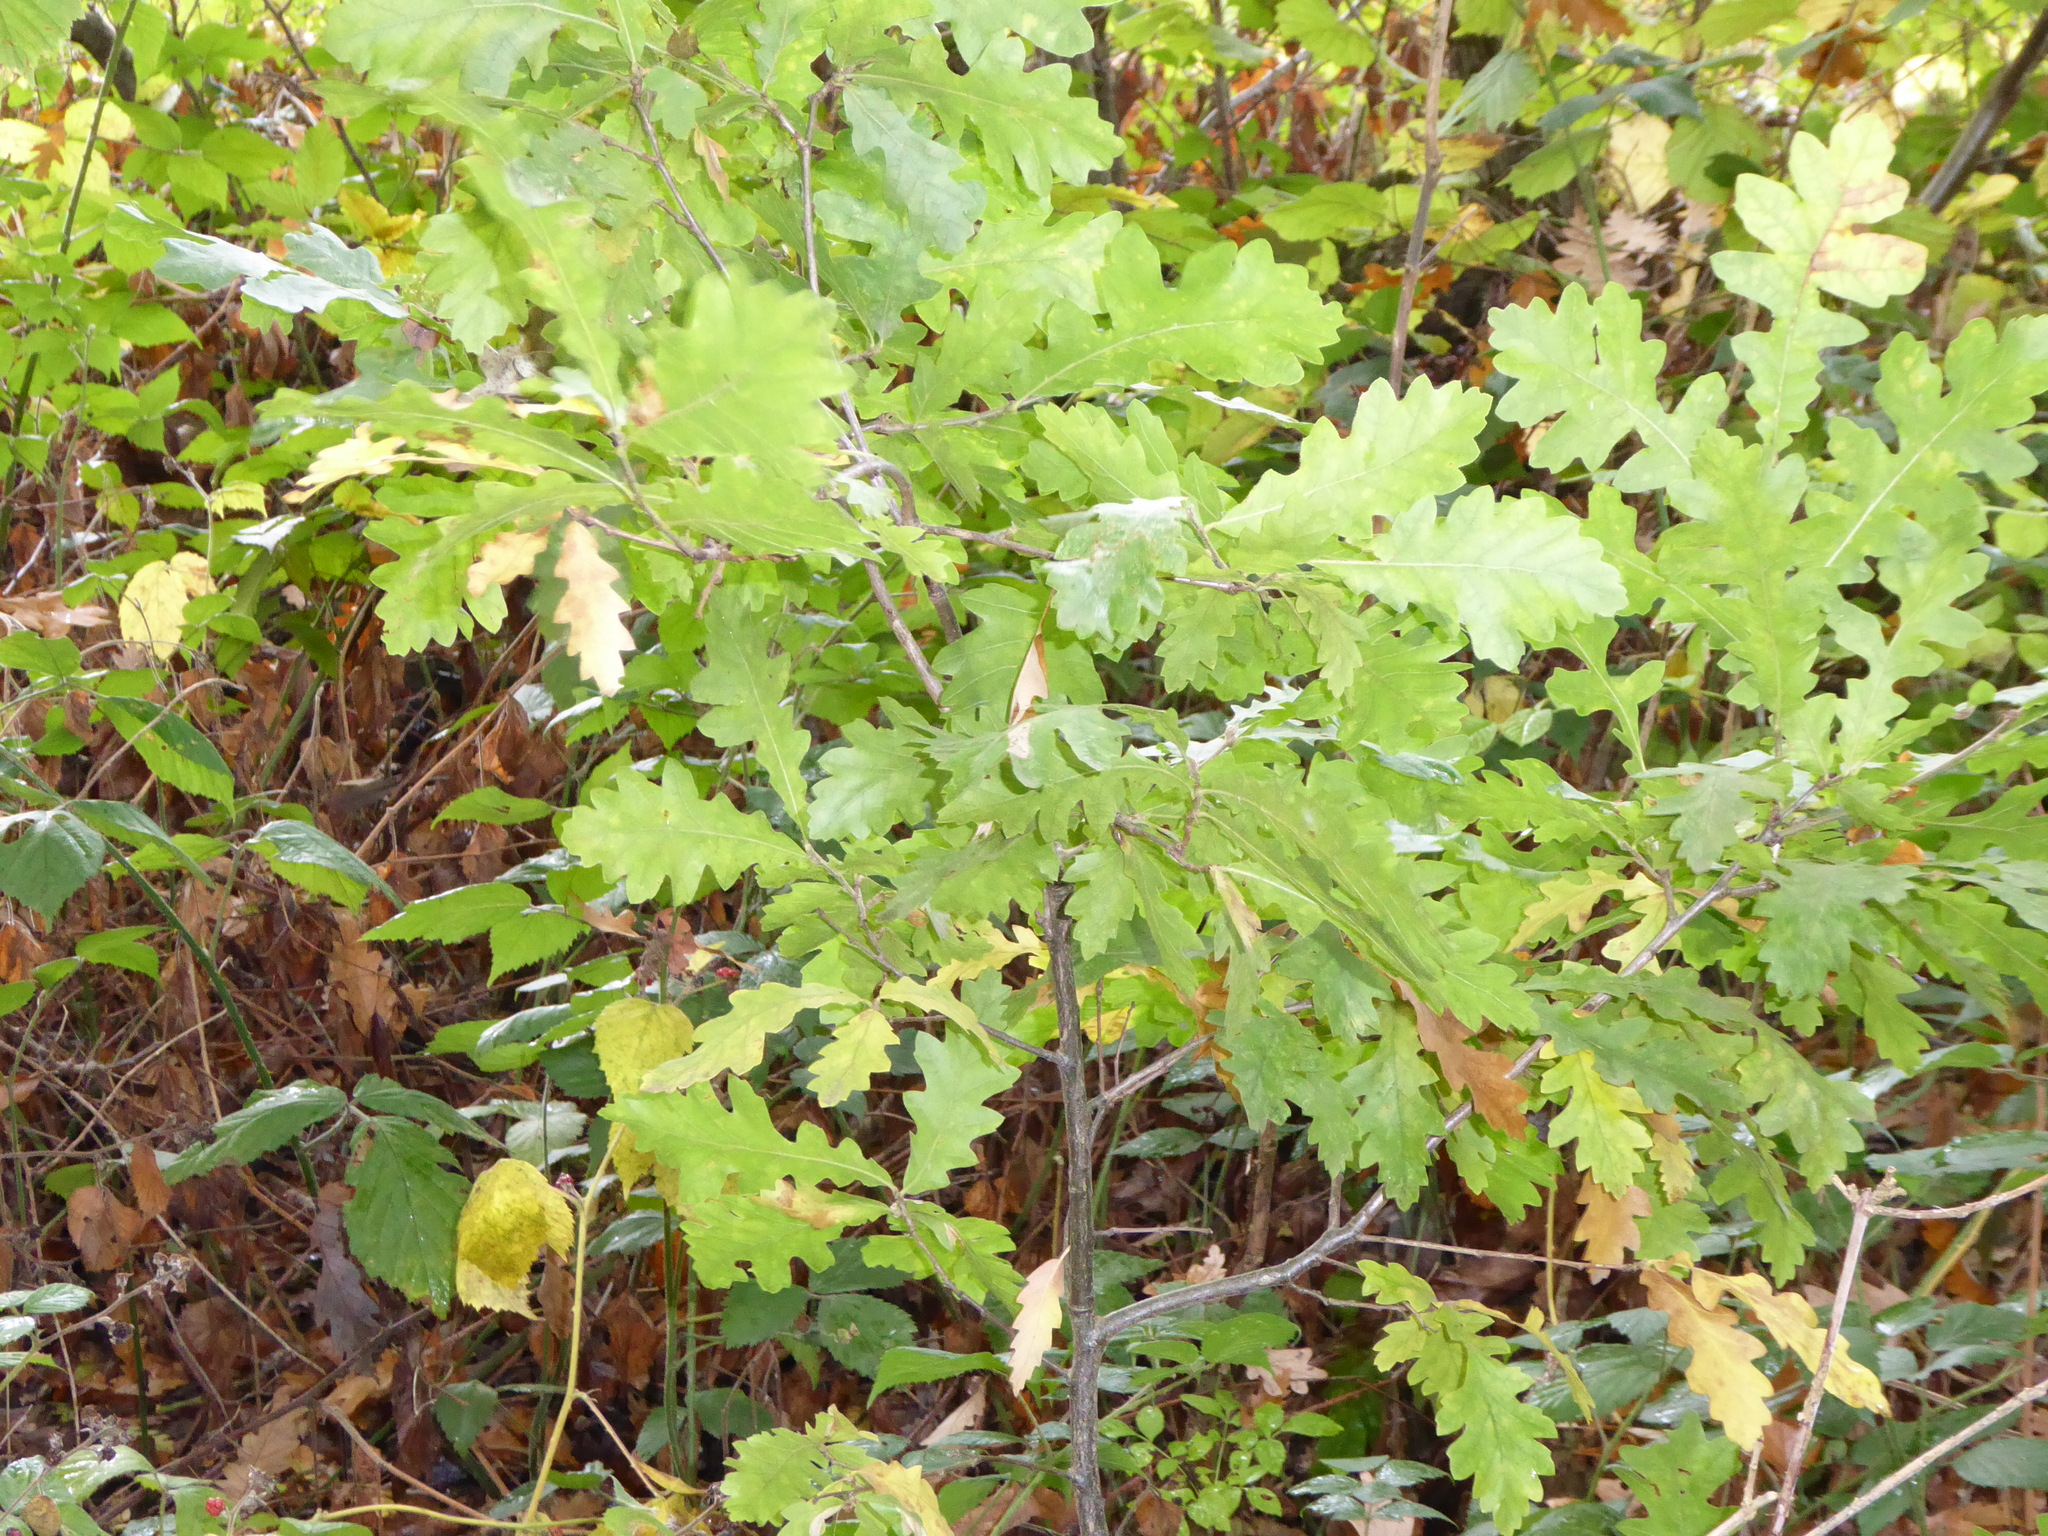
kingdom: Plantae
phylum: Tracheophyta
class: Magnoliopsida
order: Fagales
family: Fagaceae
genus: Quercus
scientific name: Quercus robur
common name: Pedunculate oak
